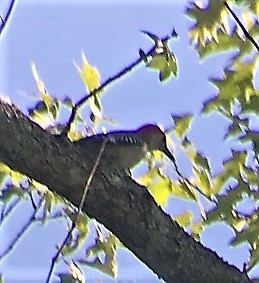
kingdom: Animalia
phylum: Chordata
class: Aves
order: Piciformes
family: Picidae
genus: Melanerpes
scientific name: Melanerpes carolinus
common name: Red-bellied woodpecker
